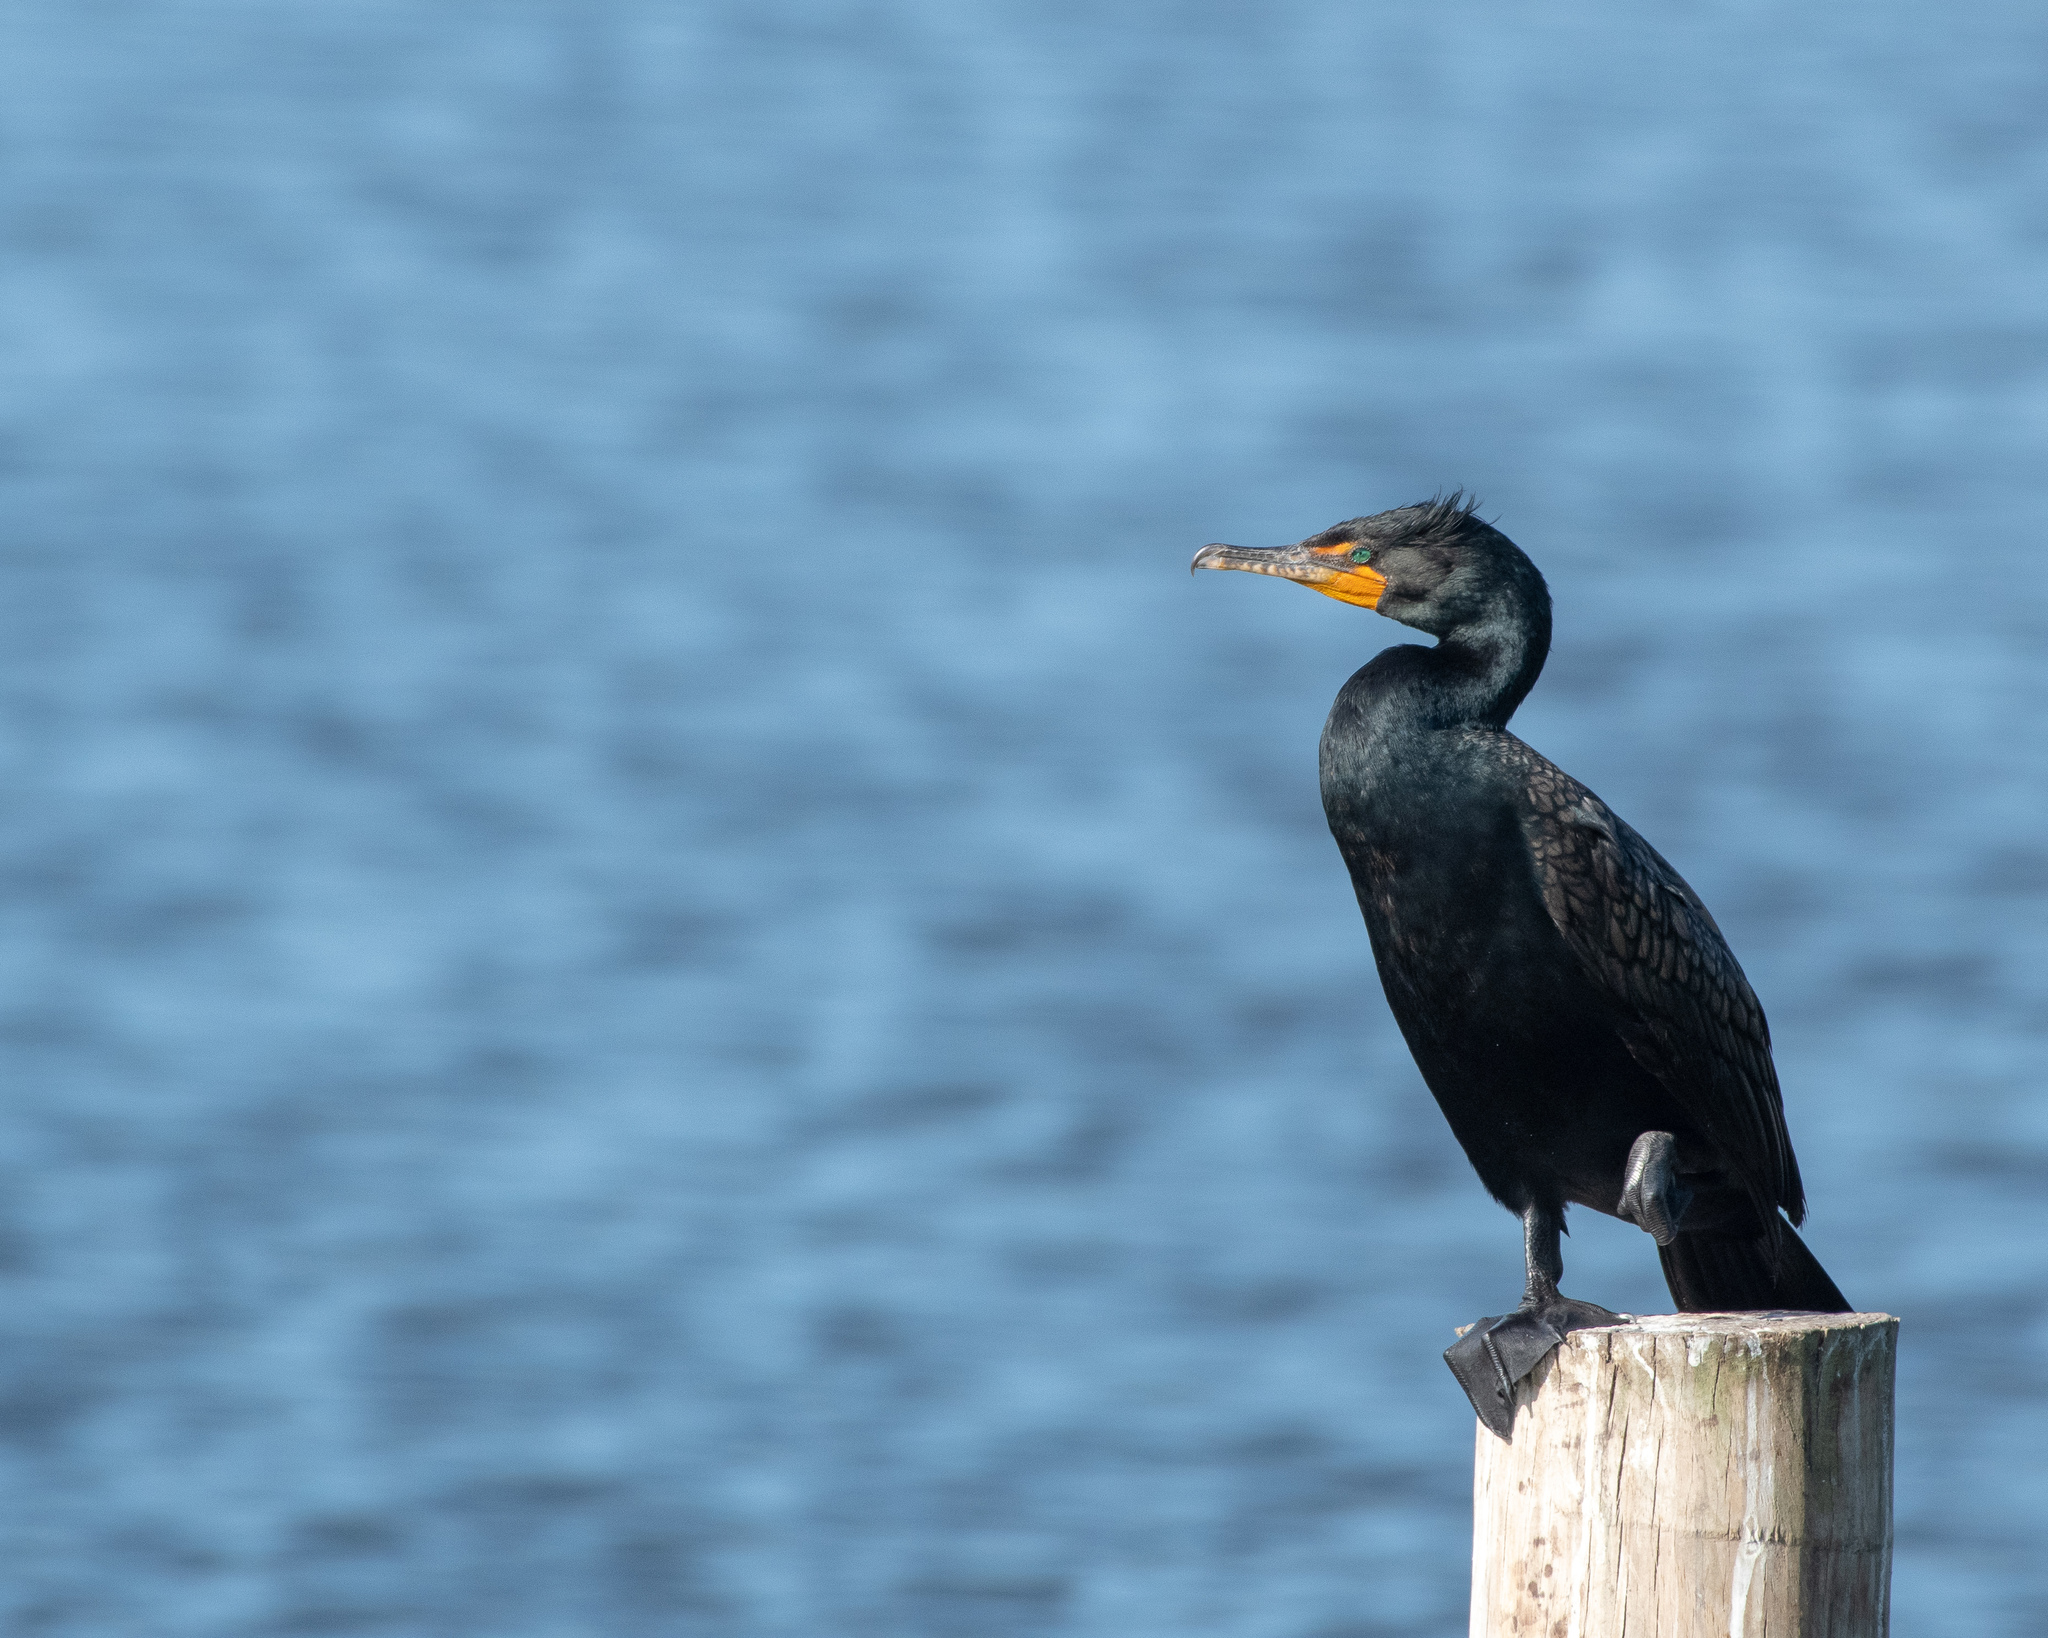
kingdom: Animalia
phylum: Chordata
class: Aves
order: Suliformes
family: Phalacrocoracidae
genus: Phalacrocorax
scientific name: Phalacrocorax auritus
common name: Double-crested cormorant
